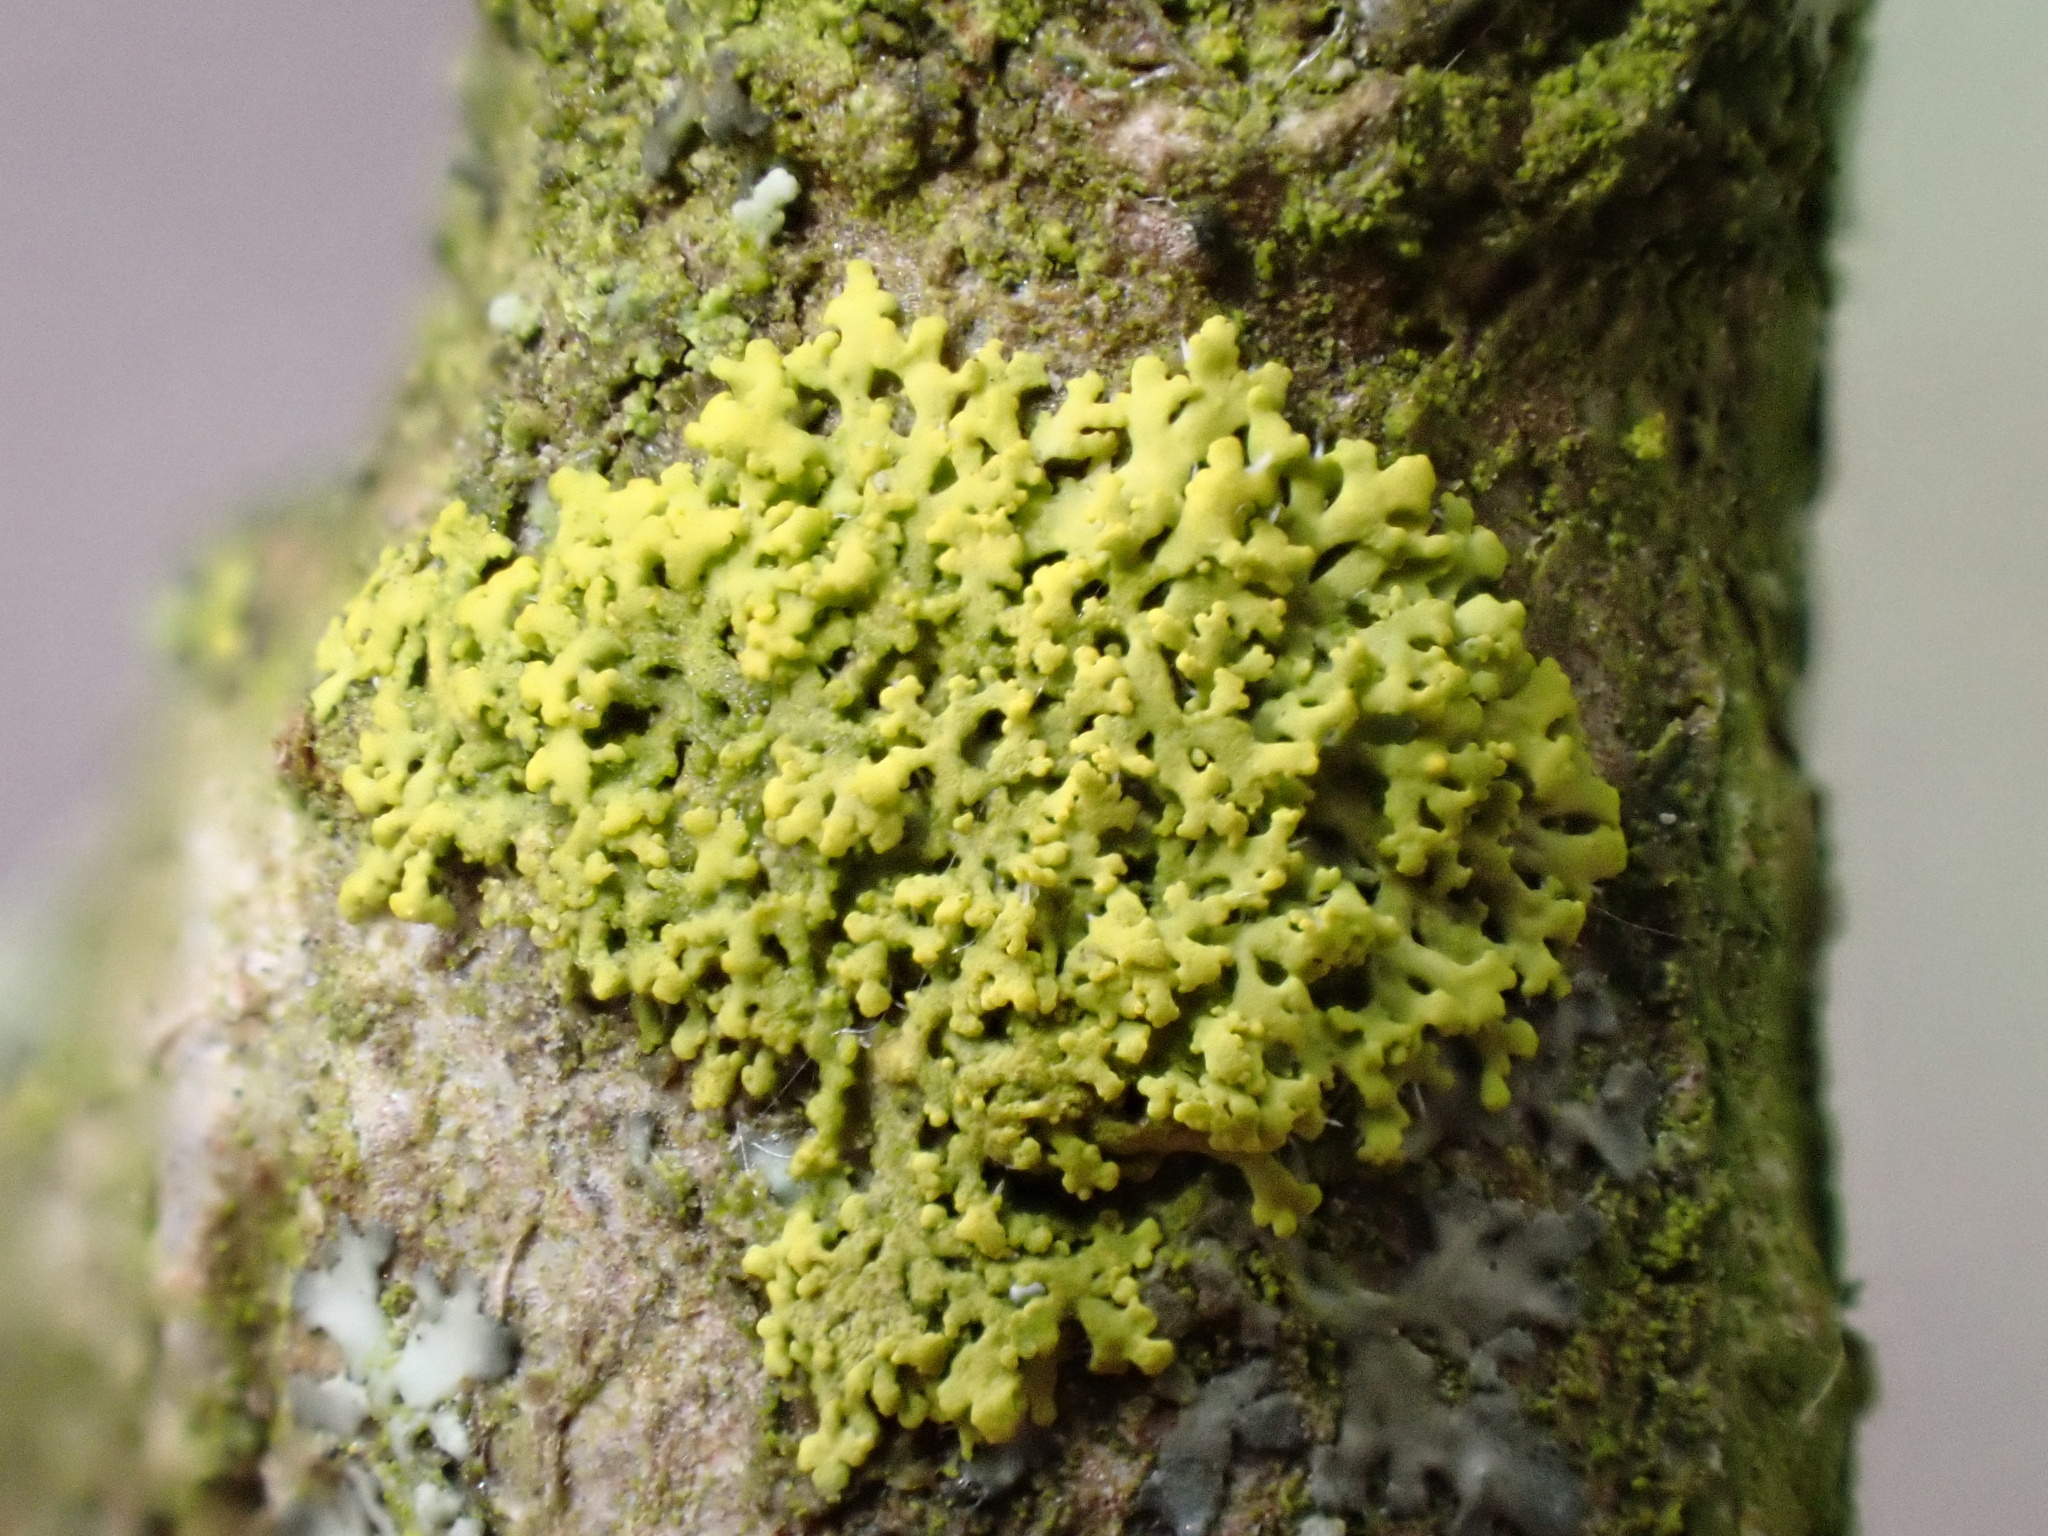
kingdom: Fungi
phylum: Ascomycota
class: Candelariomycetes
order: Candelariales
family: Candelariaceae
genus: Candelaria
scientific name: Candelaria concolor
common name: Candleflame lichen
